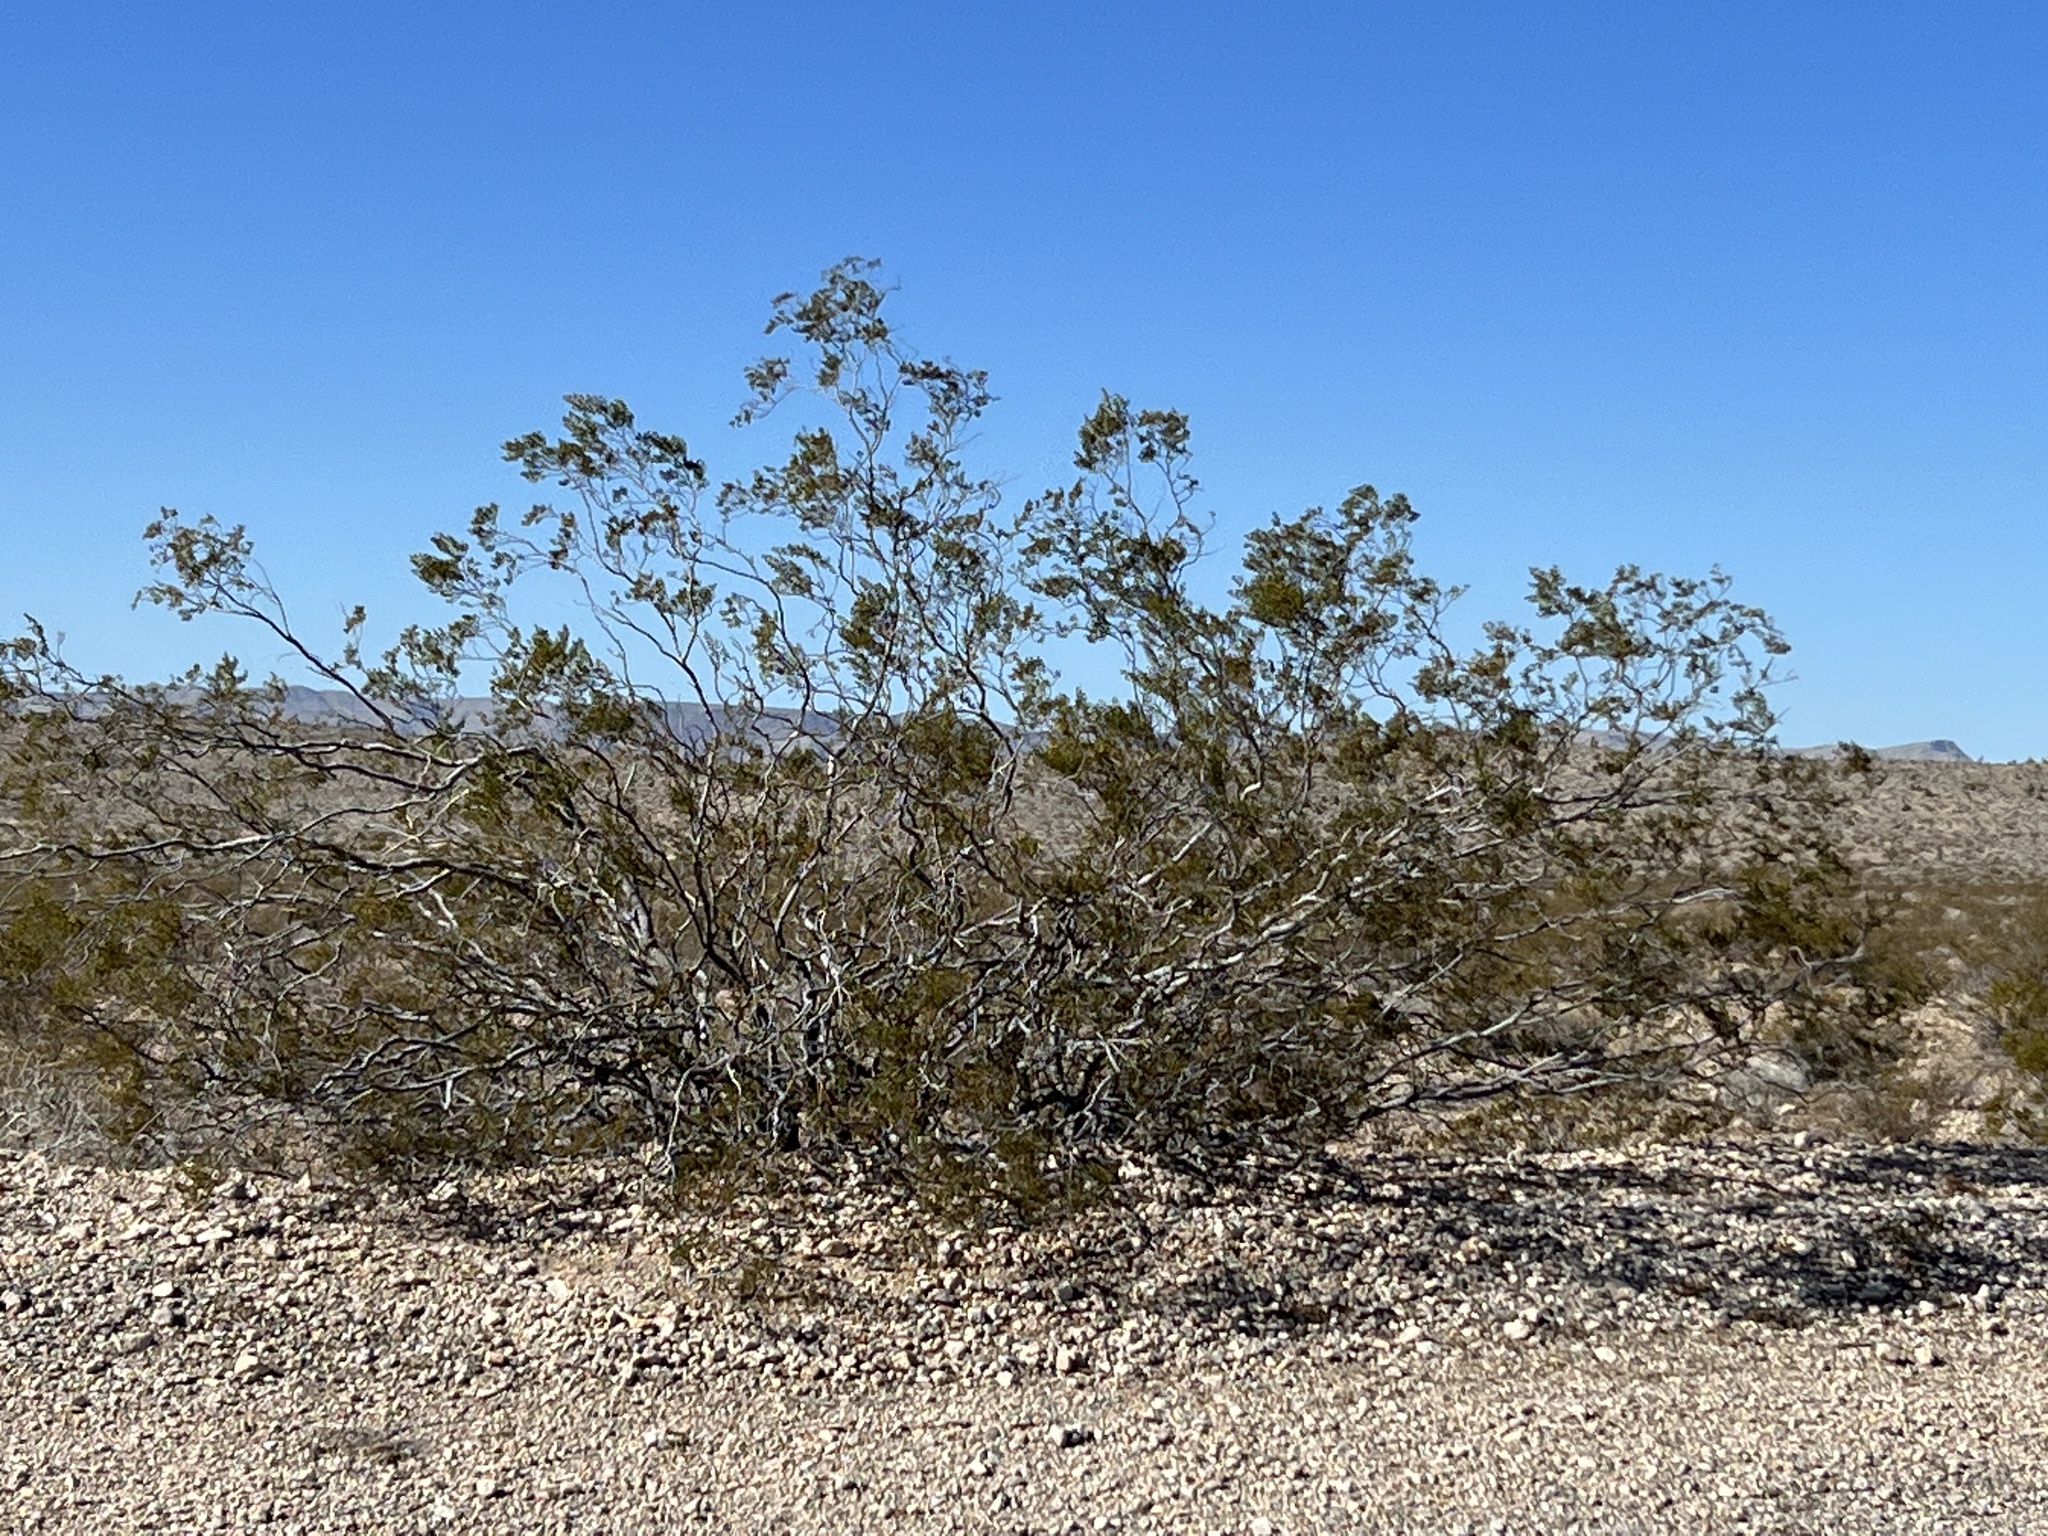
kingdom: Plantae
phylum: Tracheophyta
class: Magnoliopsida
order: Zygophyllales
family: Zygophyllaceae
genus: Larrea
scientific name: Larrea tridentata
